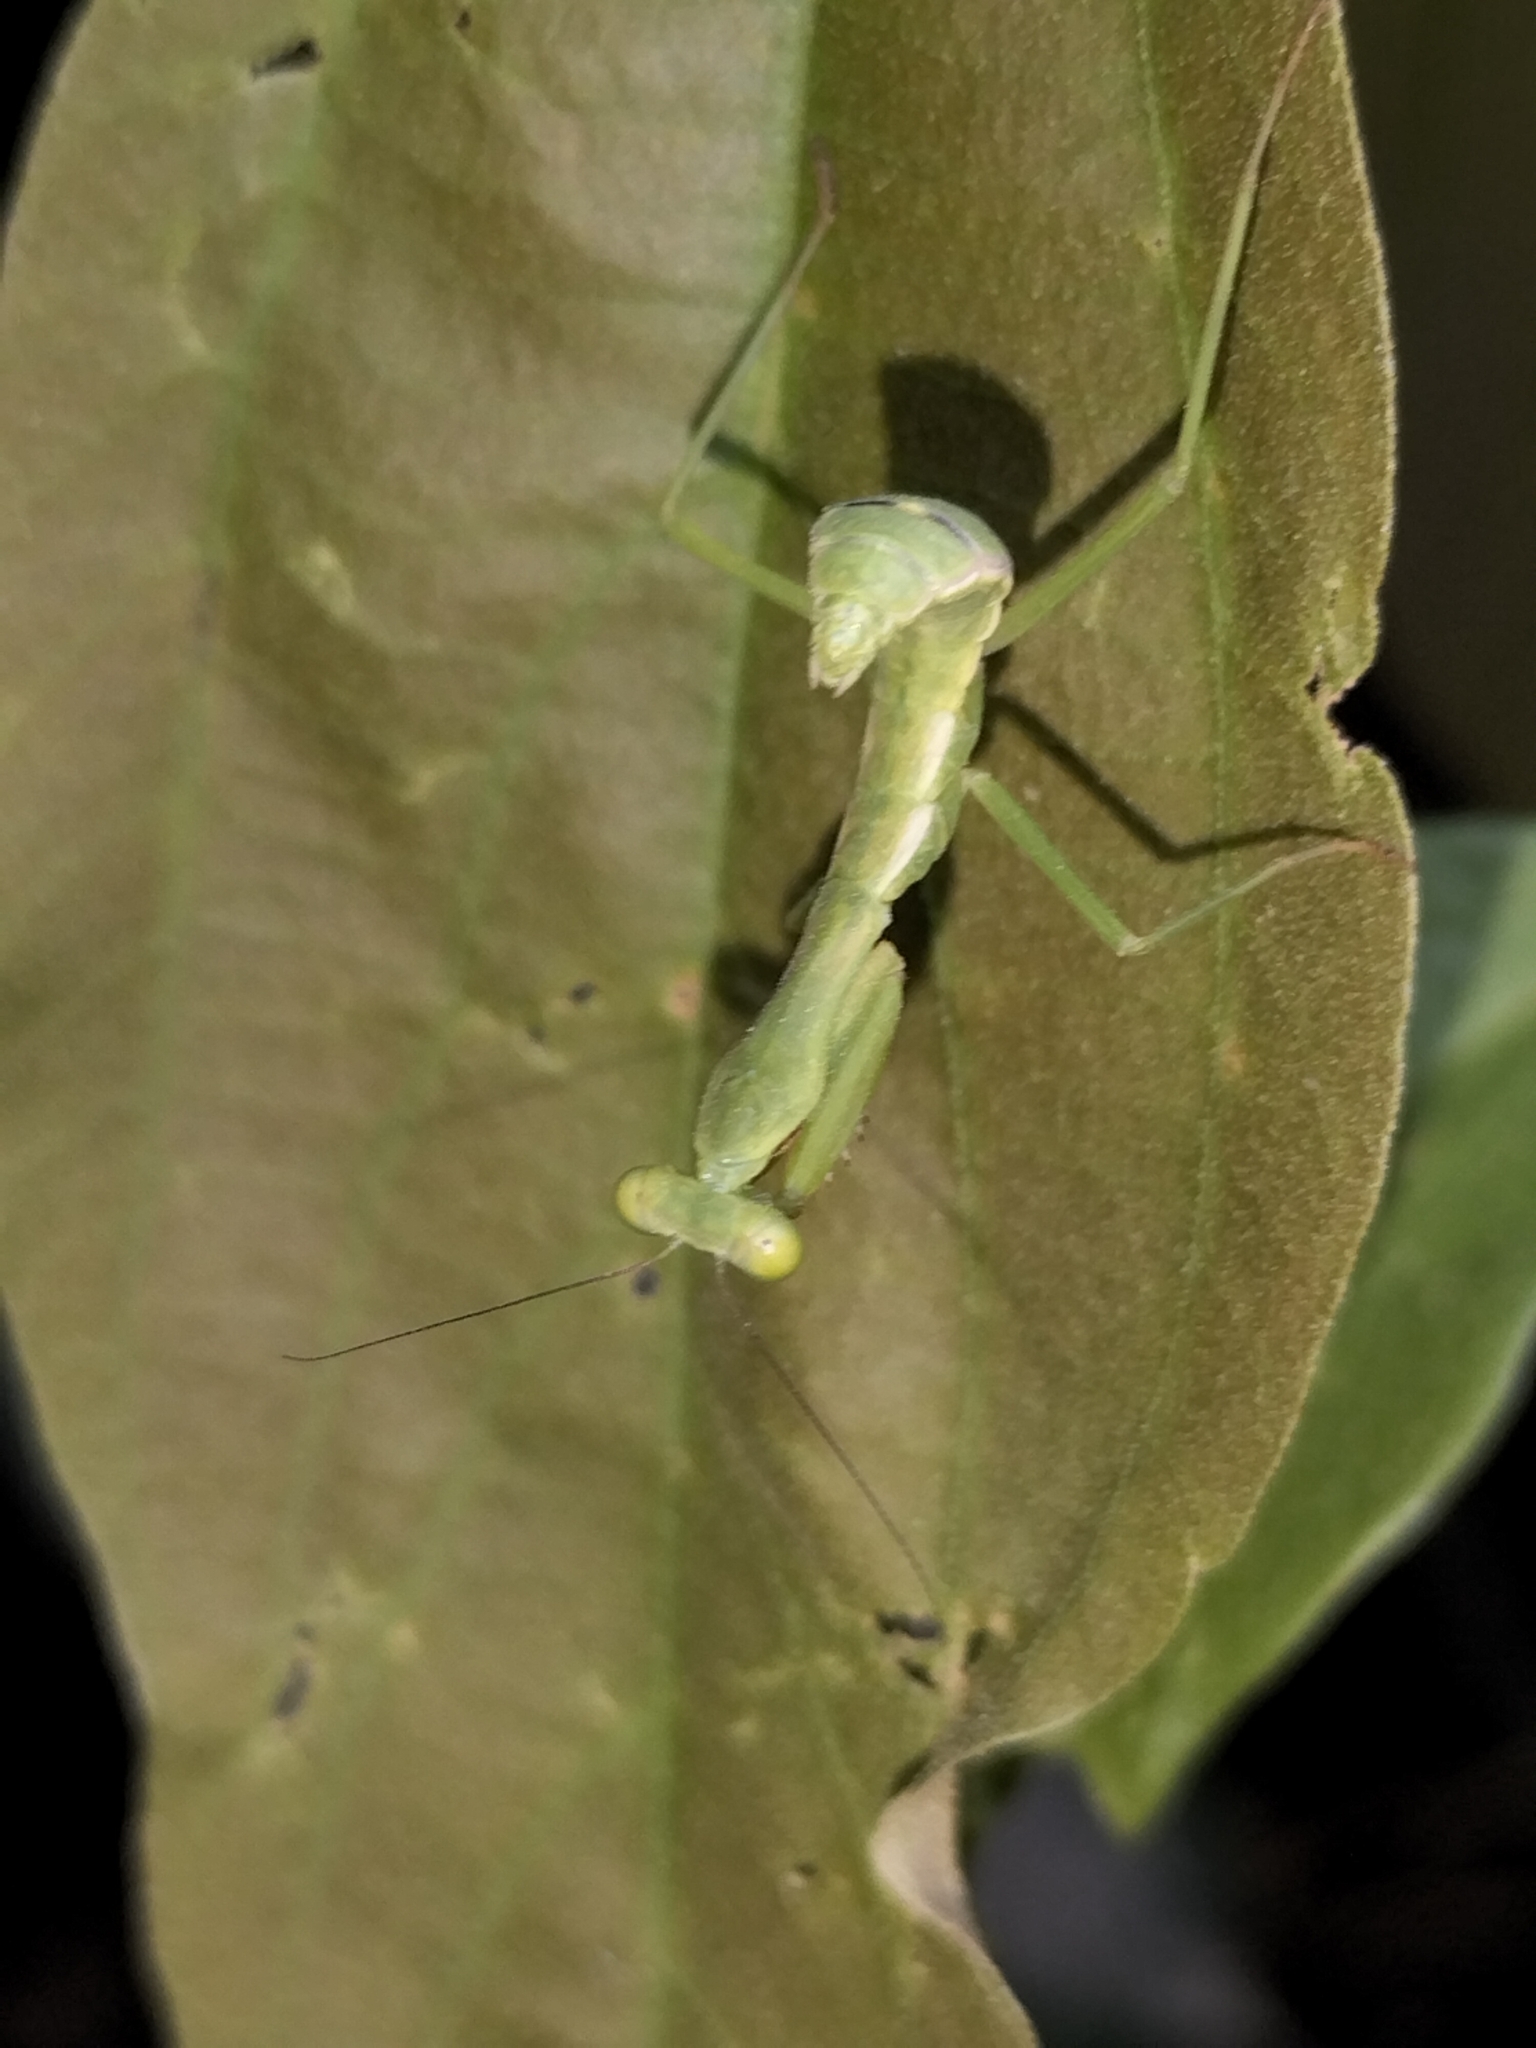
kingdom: Animalia
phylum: Arthropoda
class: Insecta
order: Mantodea
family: Mantidae
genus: Hierodula
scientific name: Hierodula majuscula
